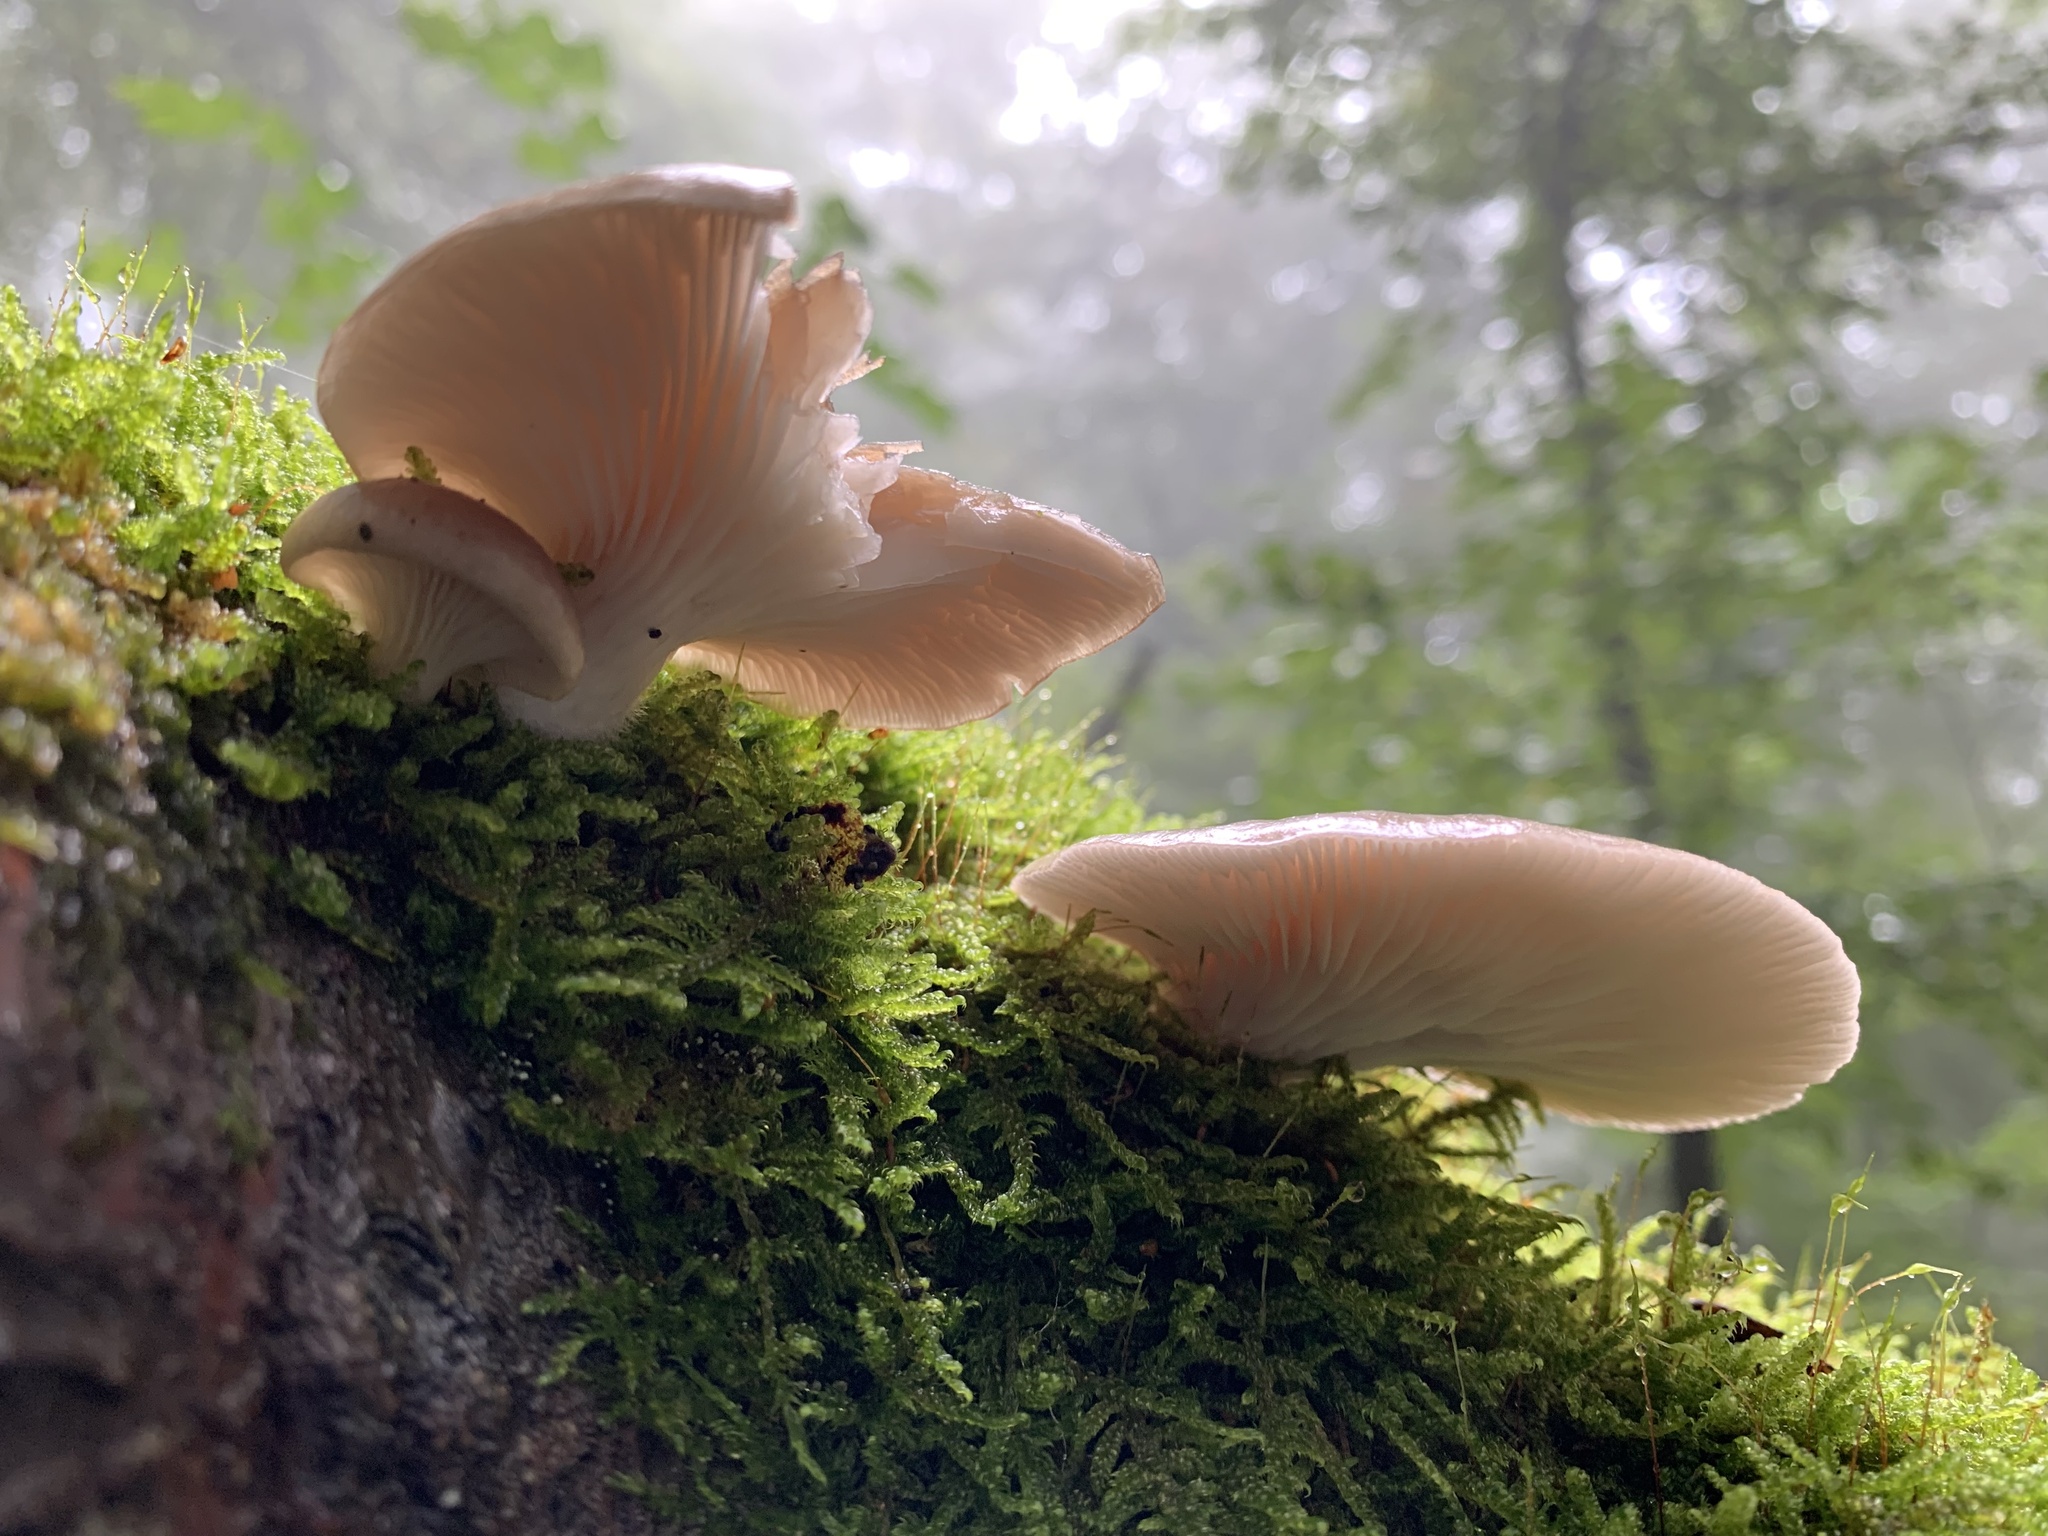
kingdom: Fungi
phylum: Basidiomycota
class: Agaricomycetes
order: Agaricales
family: Pleurotaceae
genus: Pleurotus
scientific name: Pleurotus ostreatus
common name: Oyster mushroom
